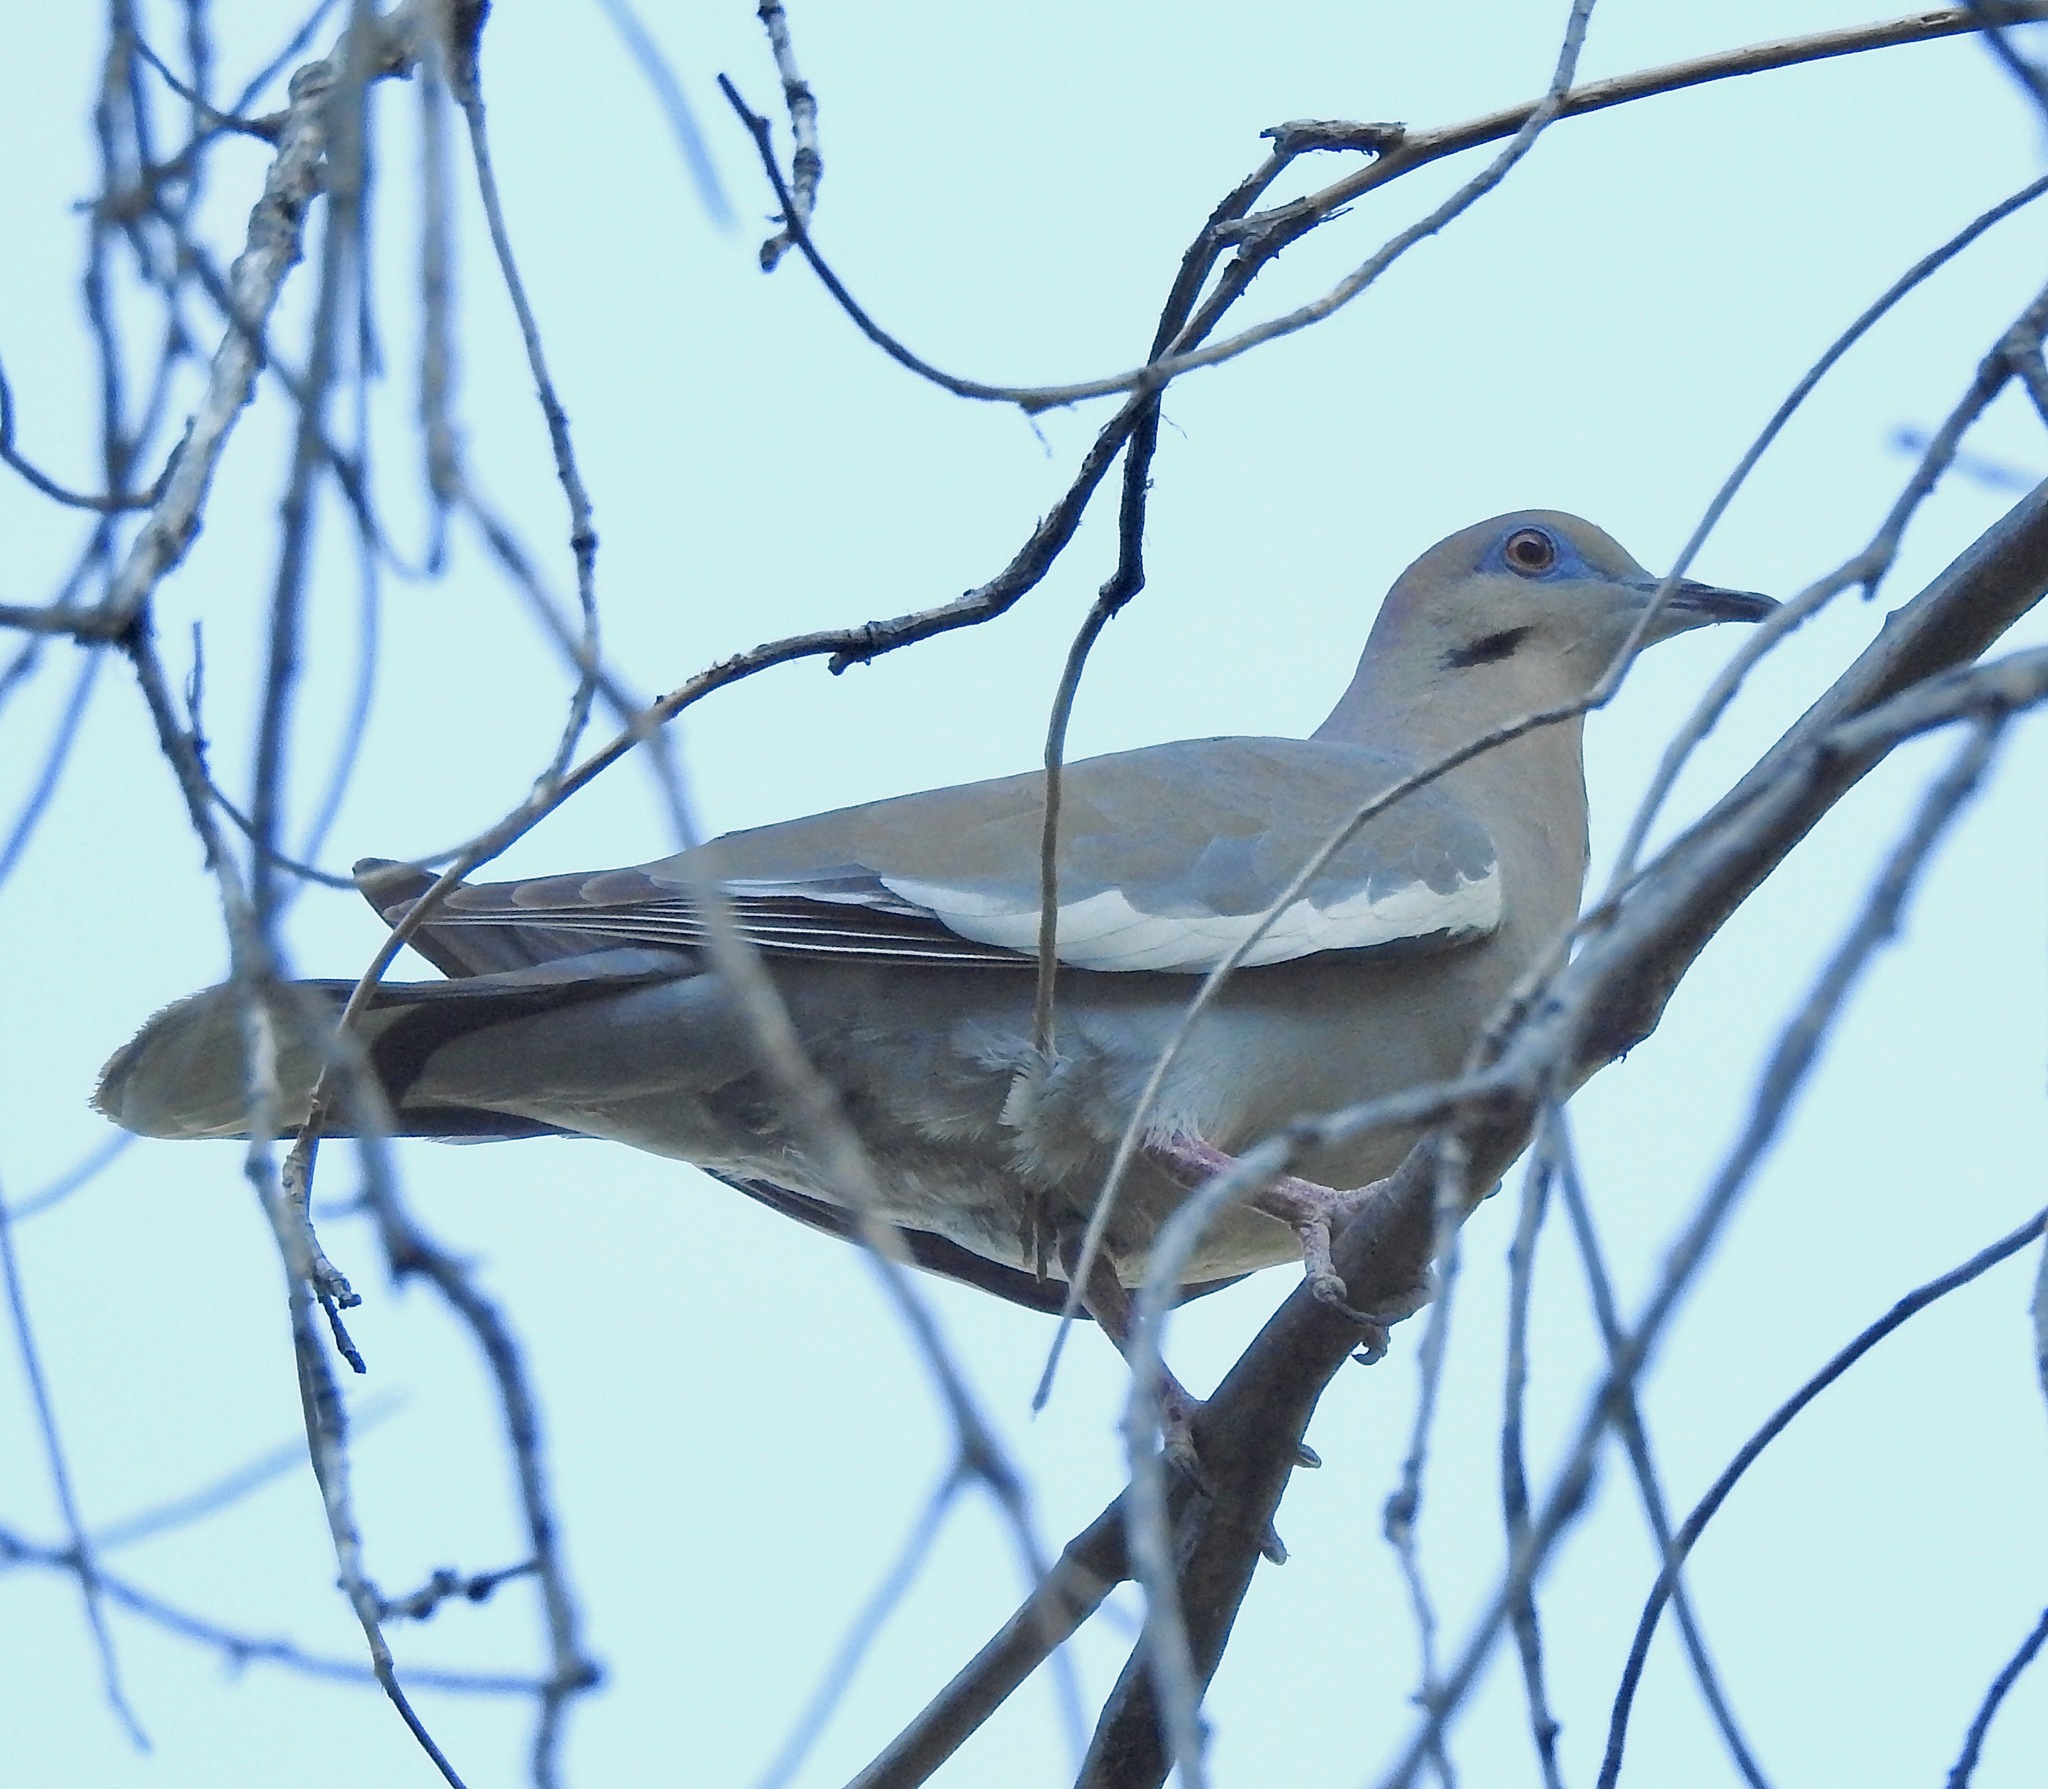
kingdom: Animalia
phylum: Chordata
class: Aves
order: Columbiformes
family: Columbidae
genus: Zenaida
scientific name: Zenaida asiatica
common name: White-winged dove
